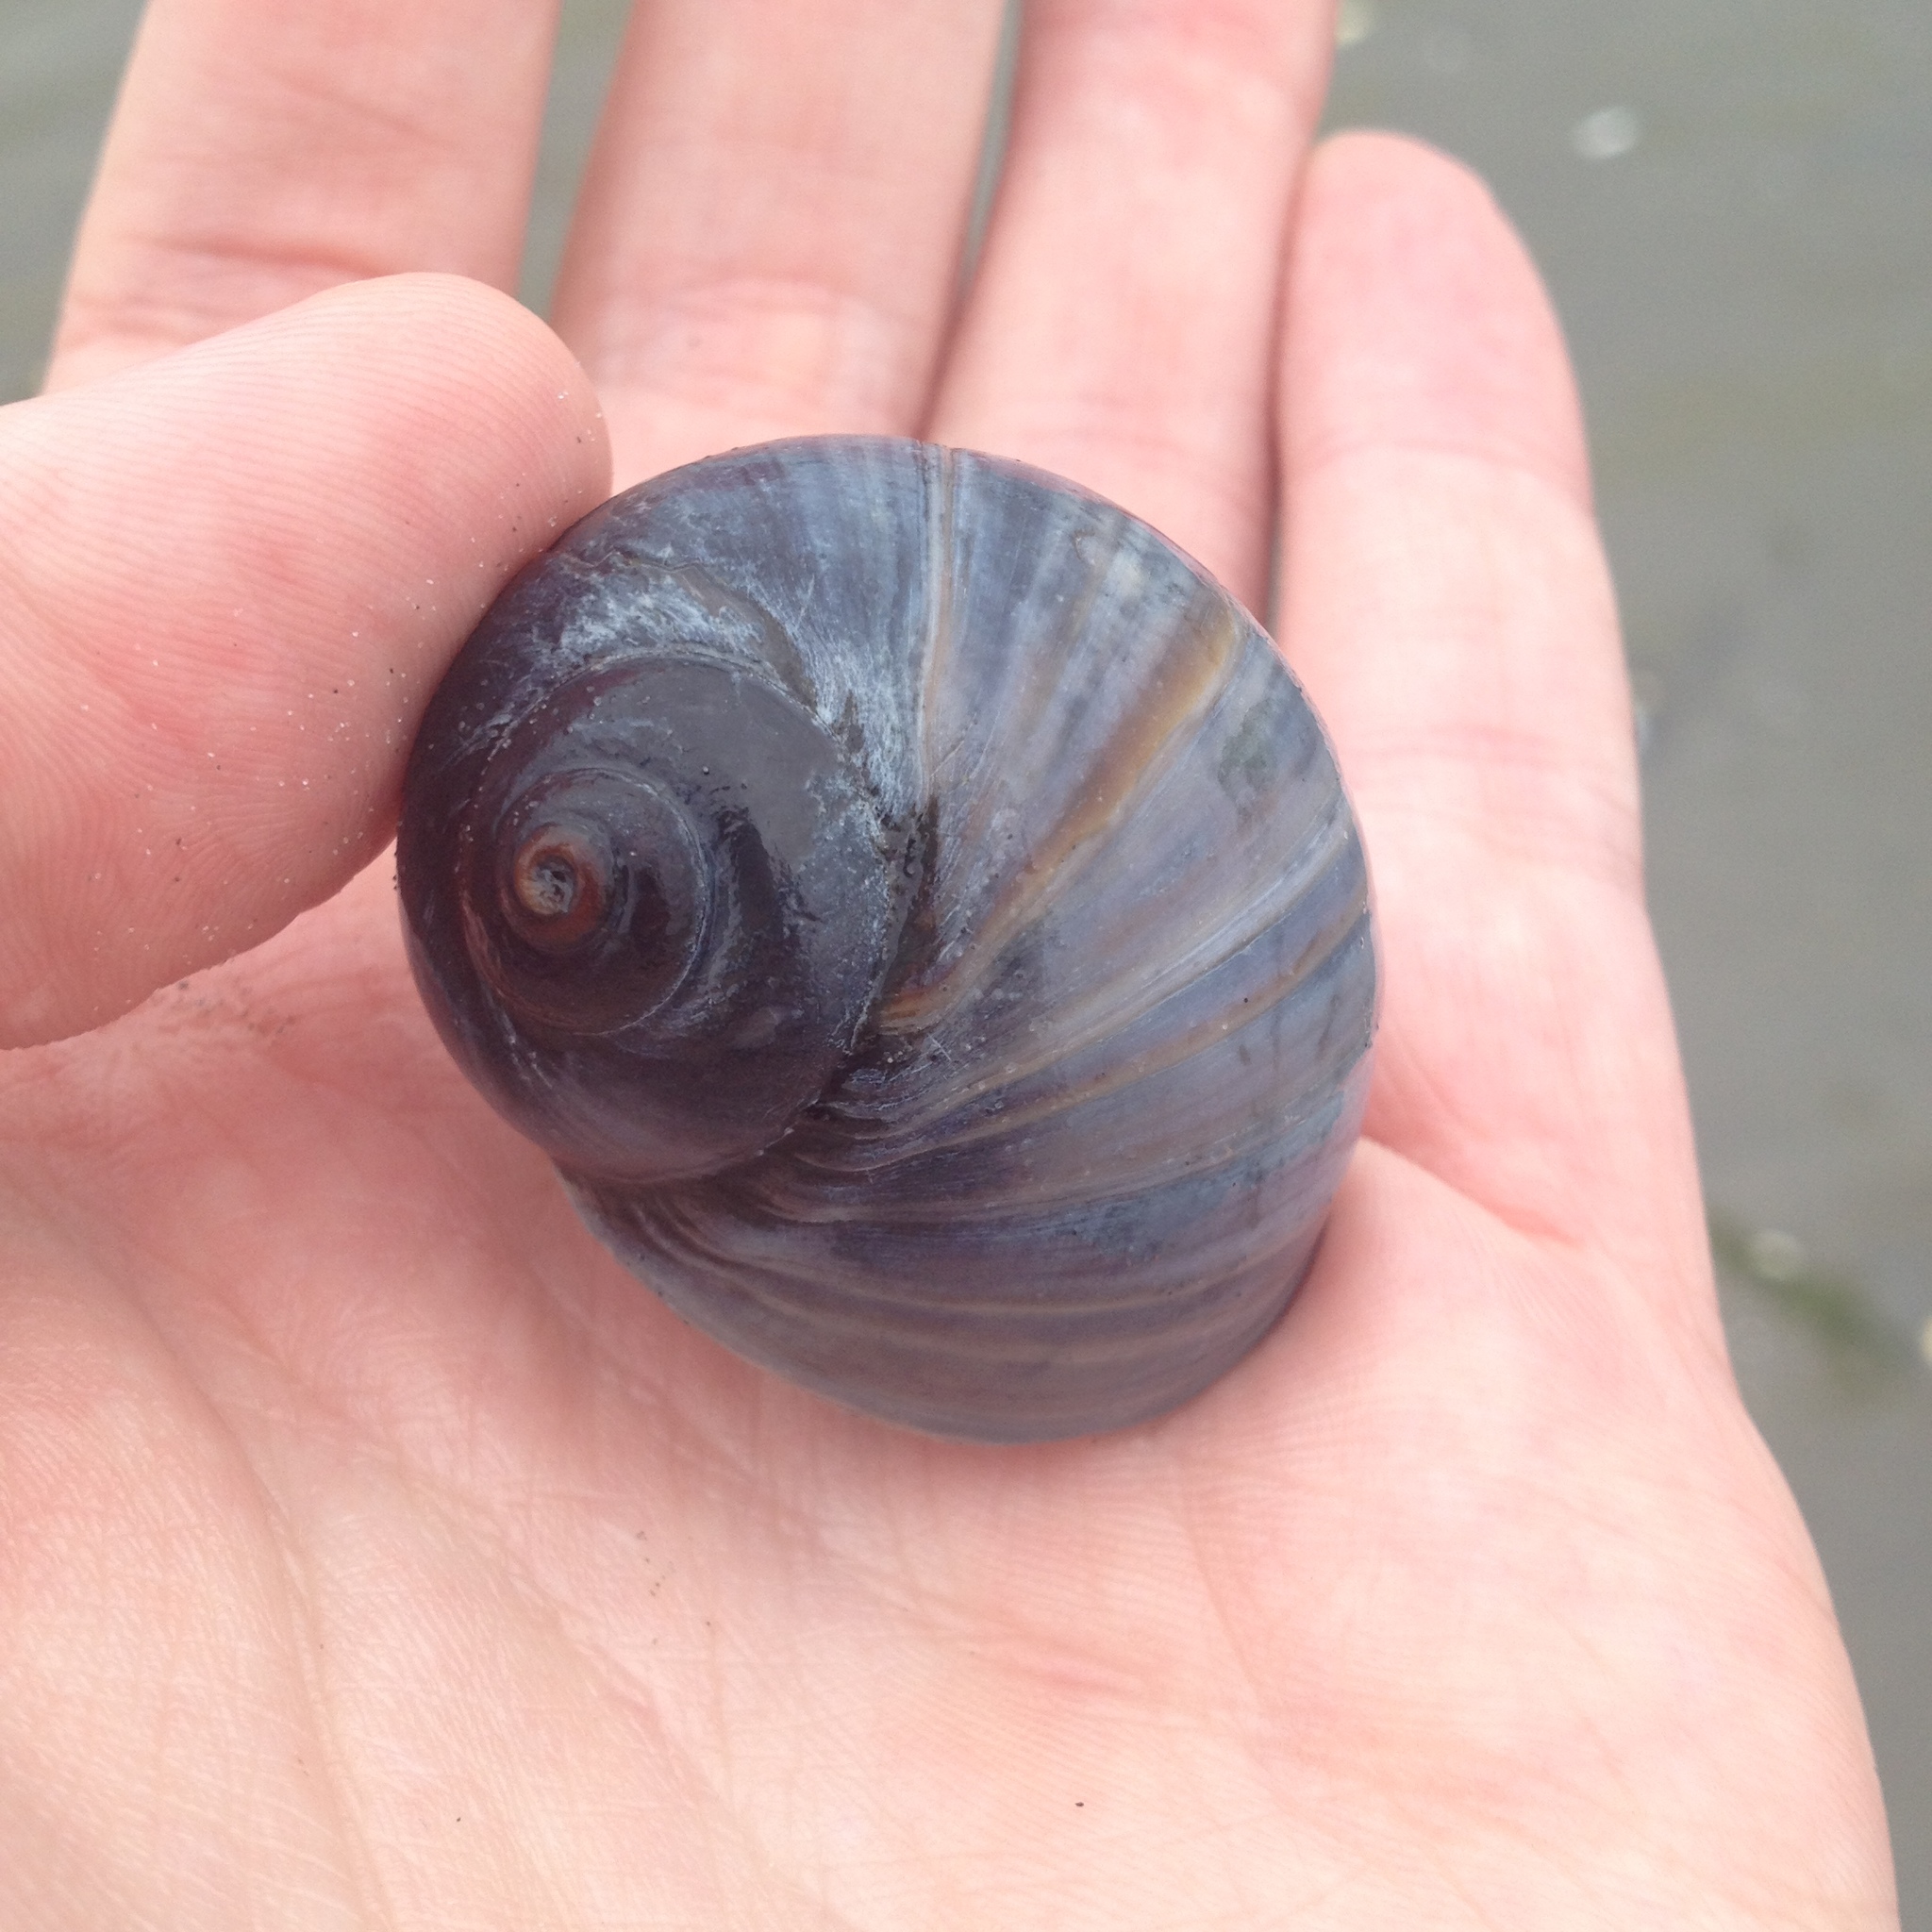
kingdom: Animalia
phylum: Mollusca
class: Gastropoda
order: Littorinimorpha
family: Naticidae
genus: Euspira
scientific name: Euspira heros
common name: Common northern moonsnail
